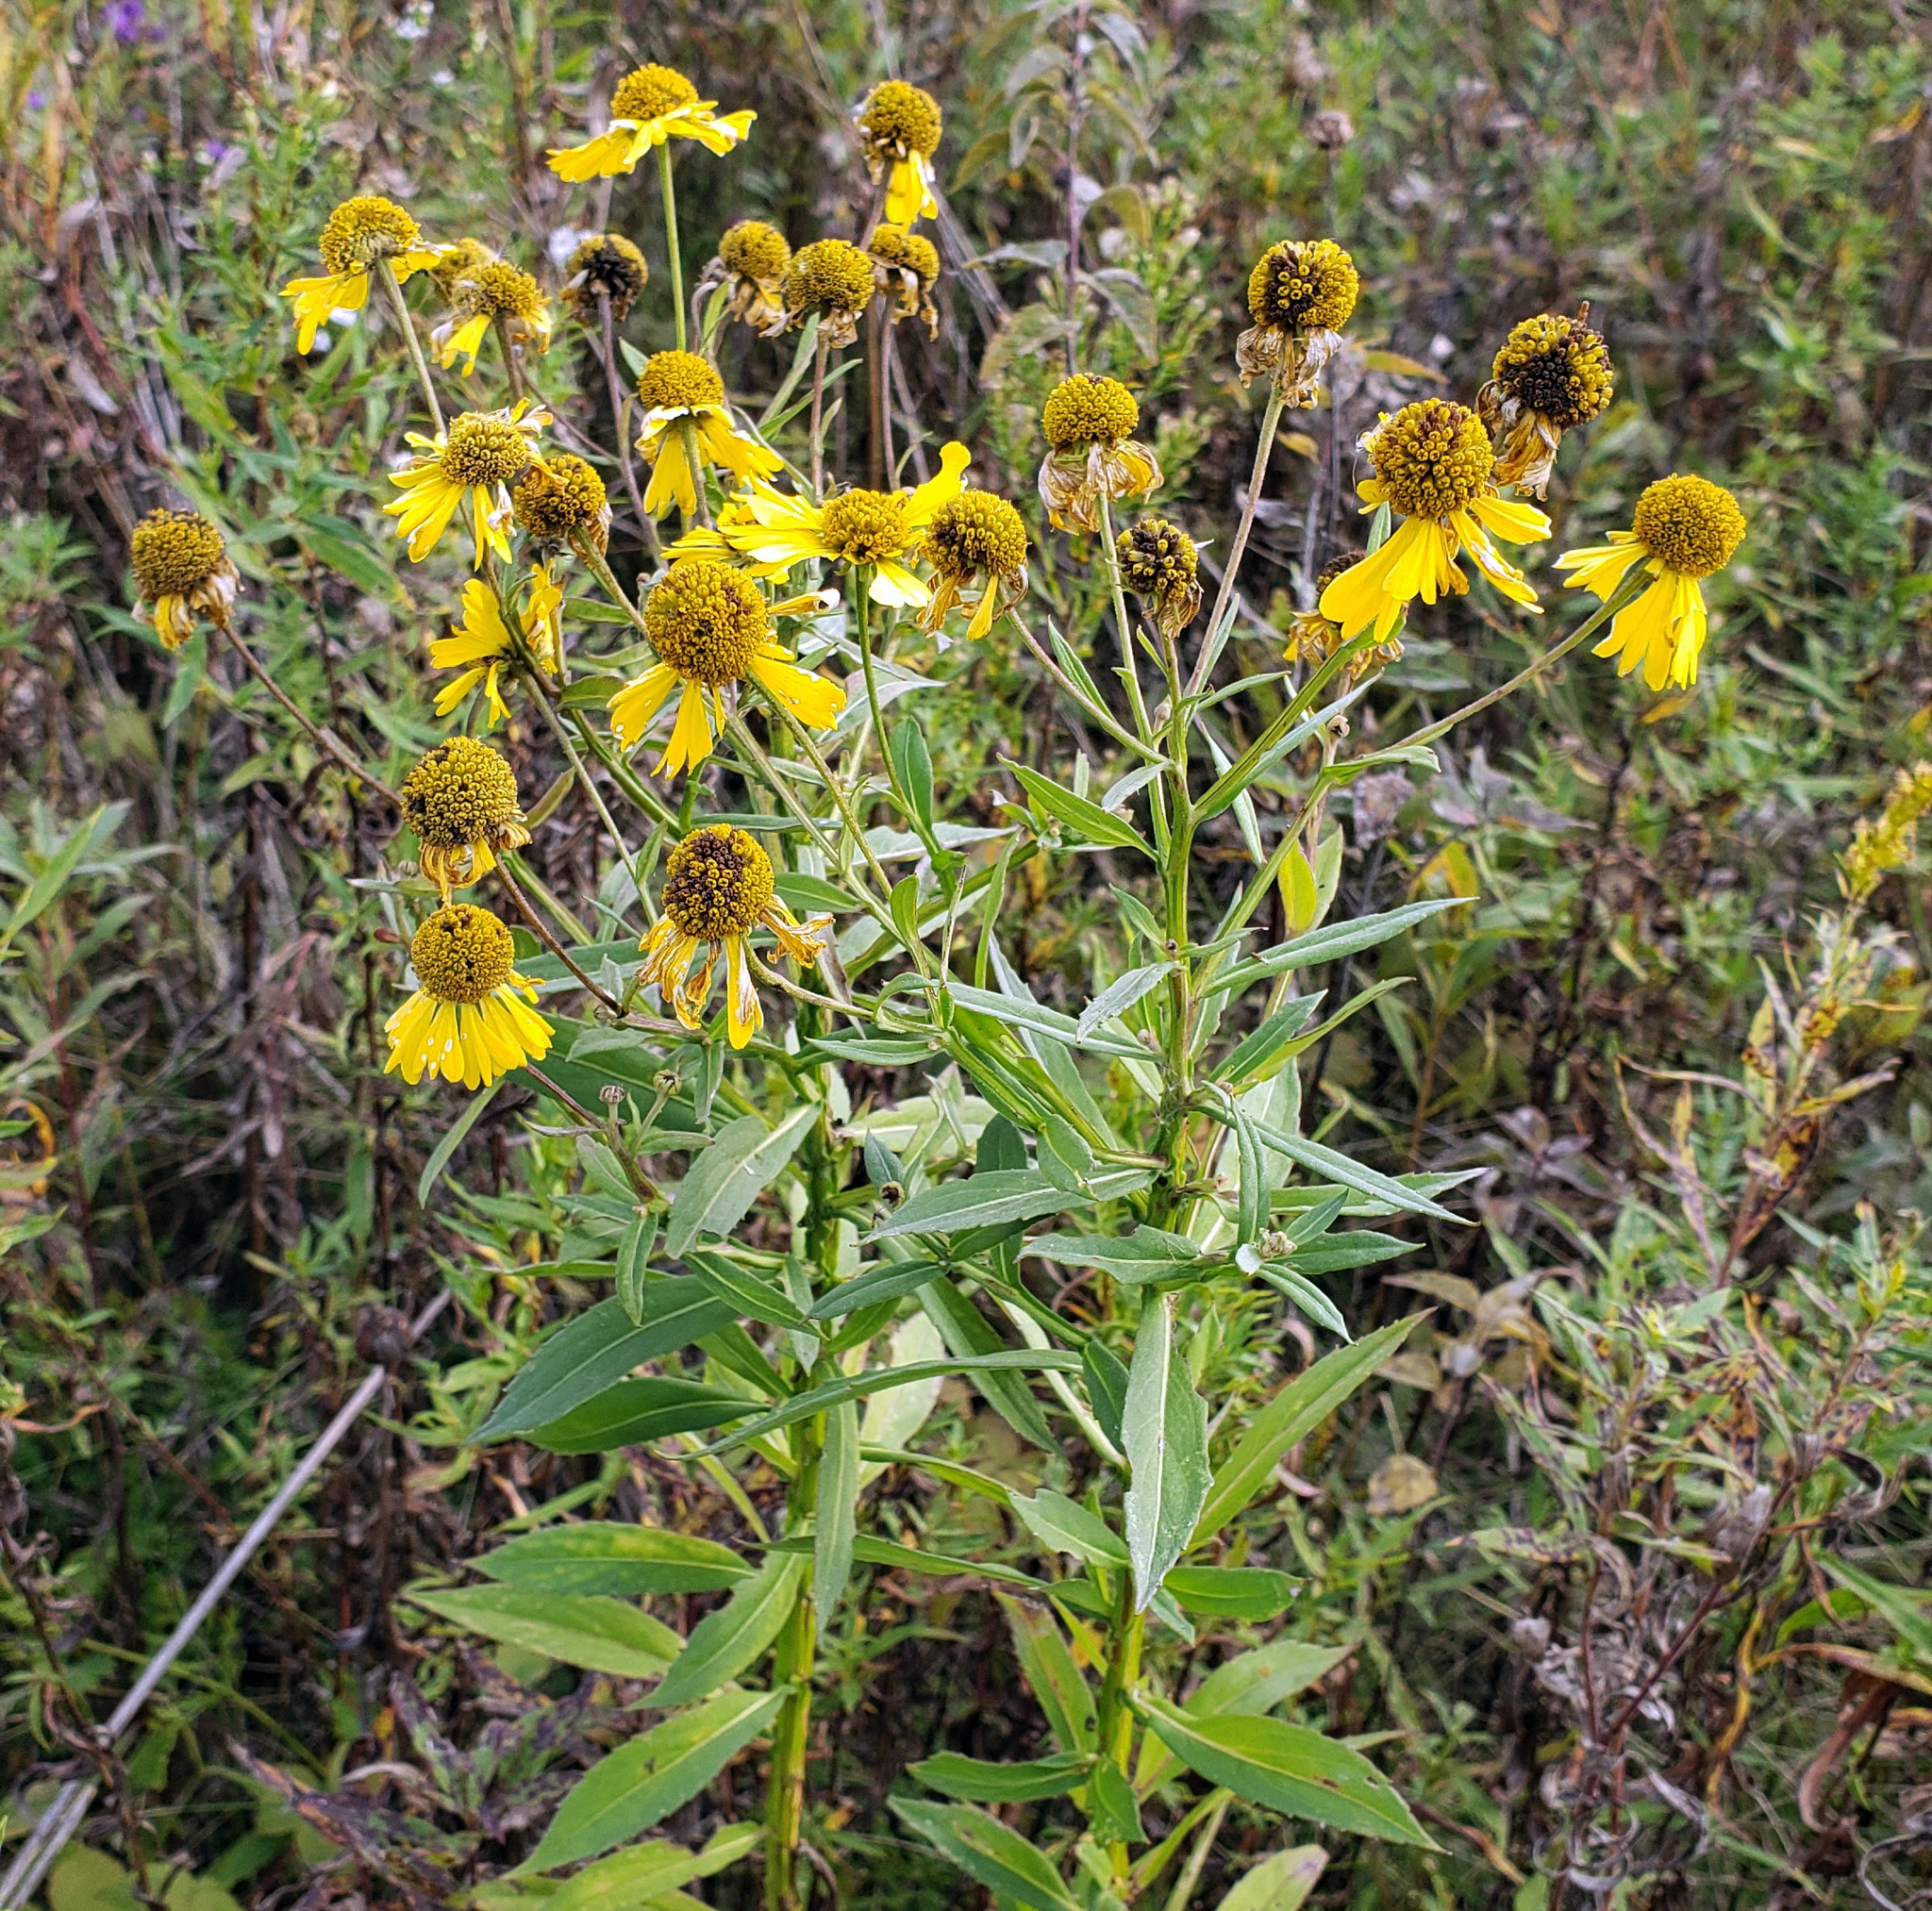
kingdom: Plantae
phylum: Tracheophyta
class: Magnoliopsida
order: Asterales
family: Asteraceae
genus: Helenium
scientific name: Helenium autumnale
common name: Sneezeweed
